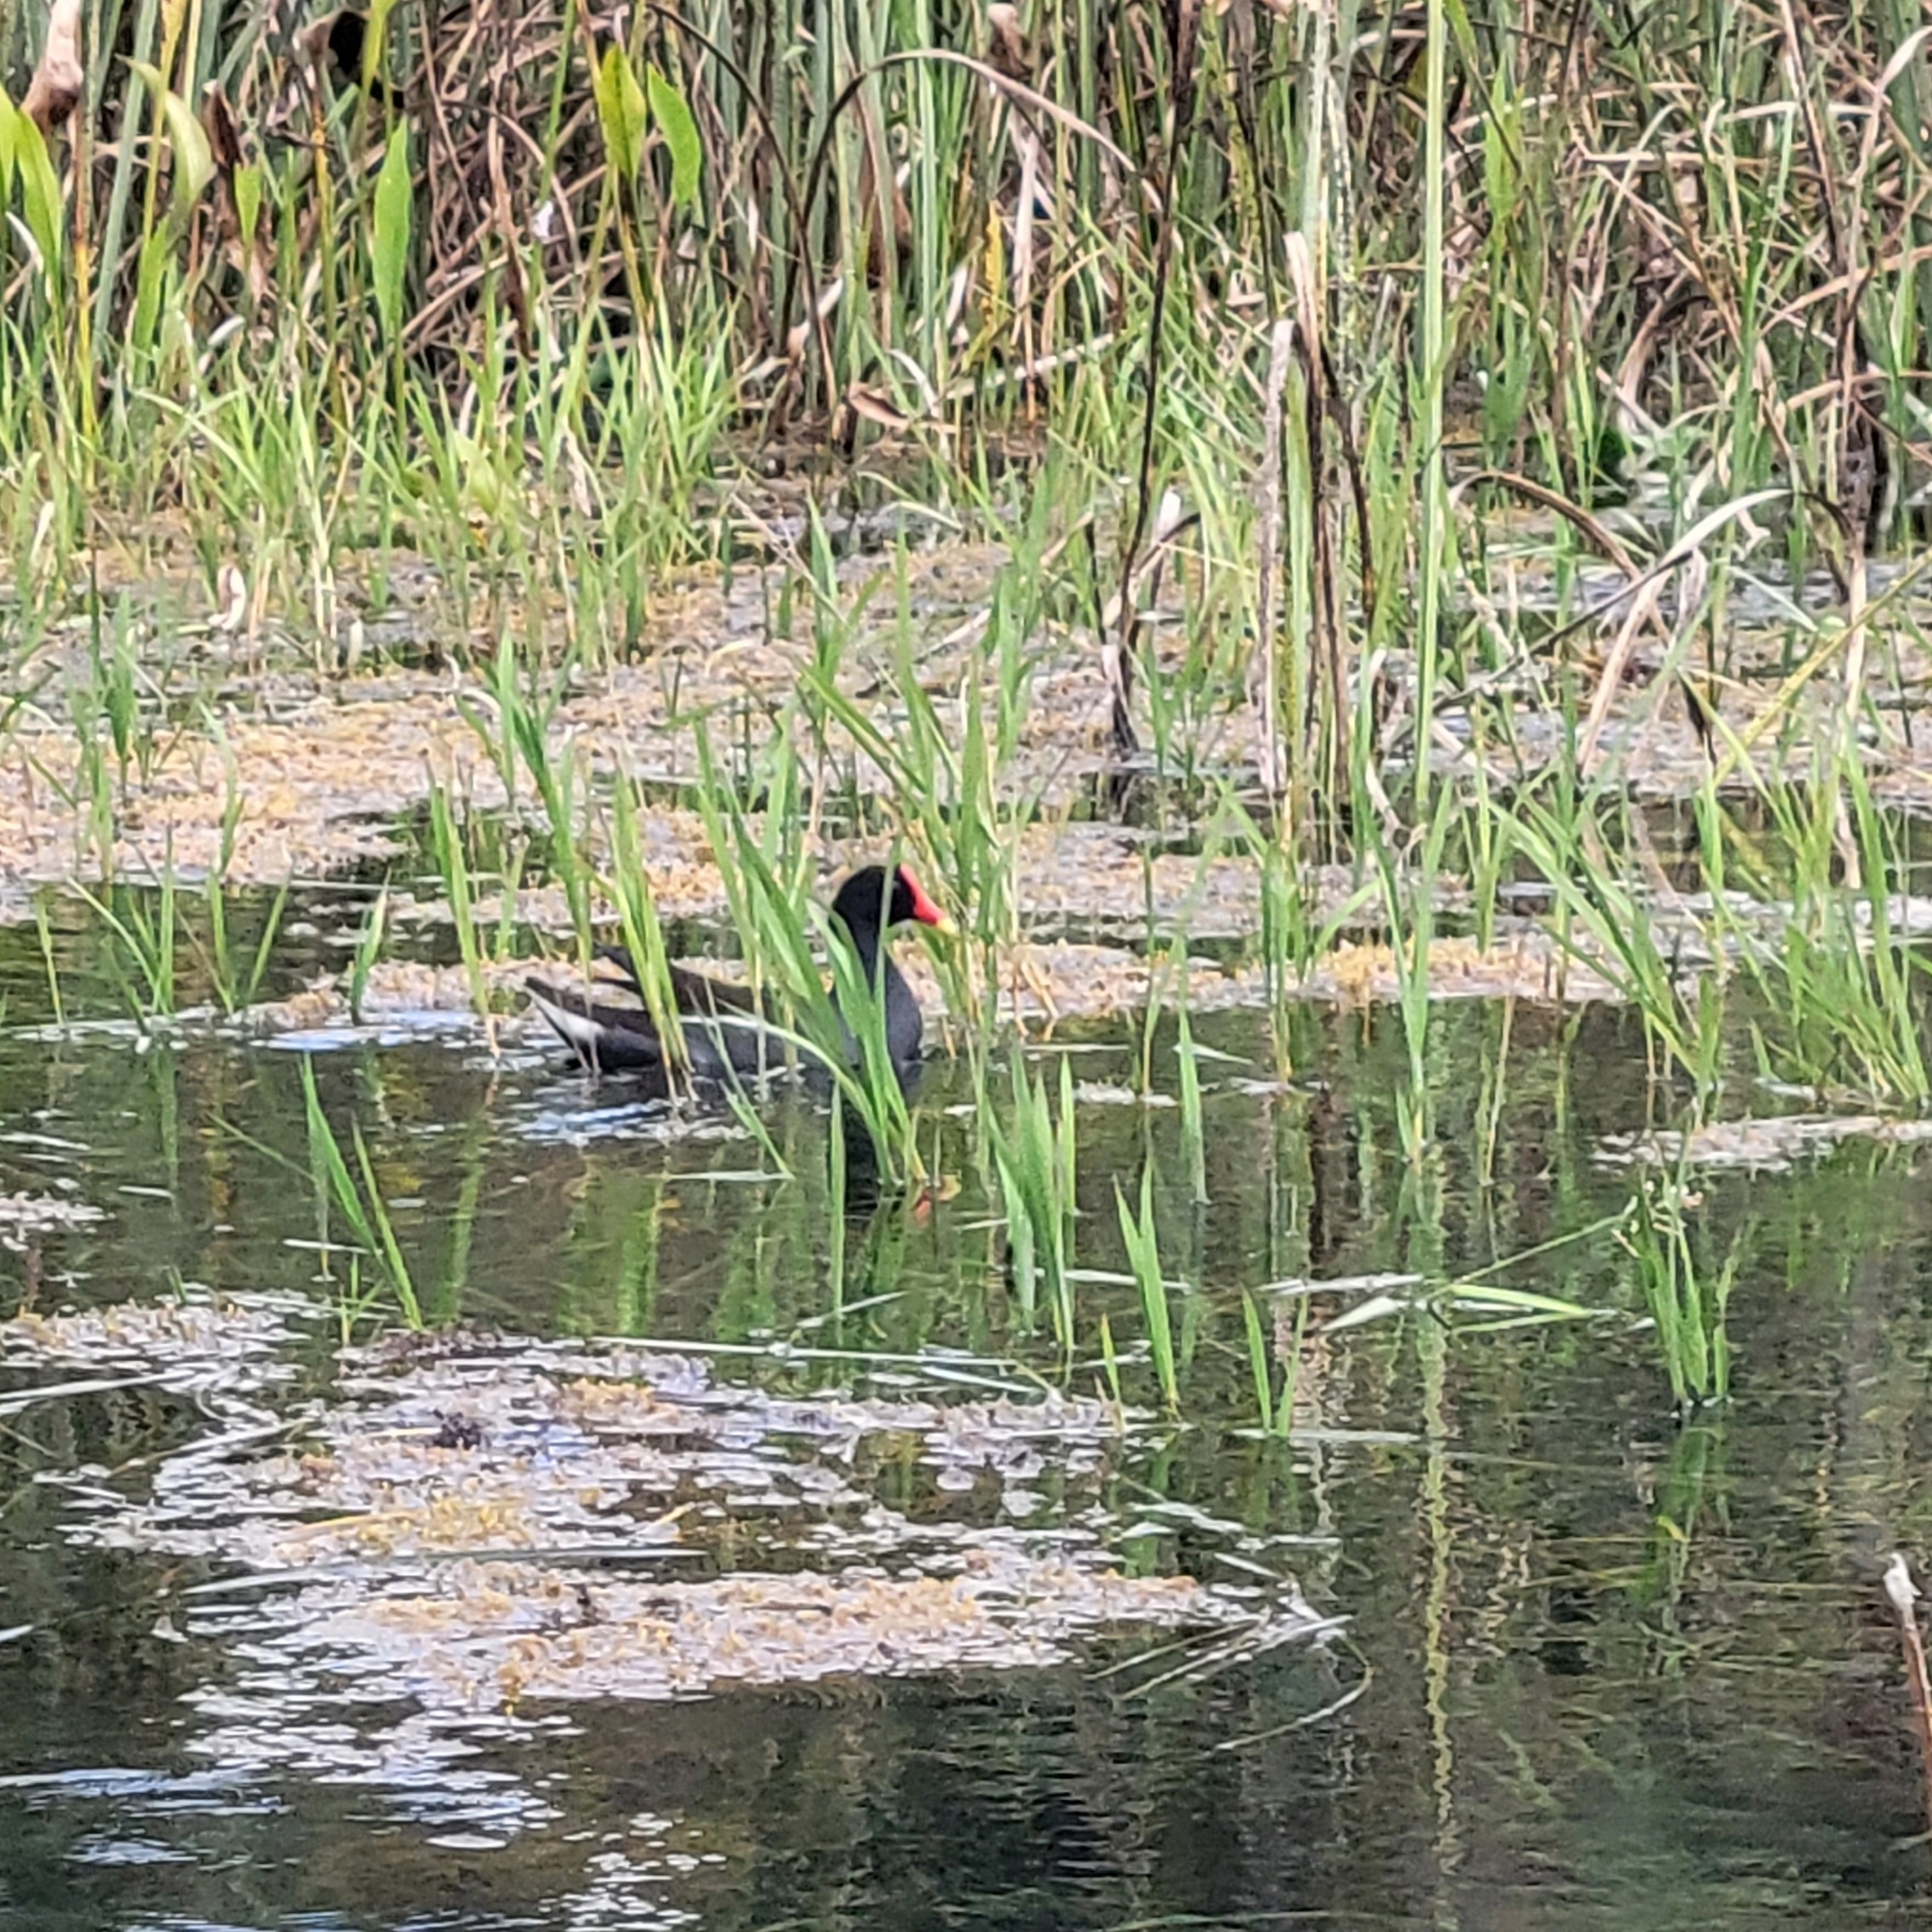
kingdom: Animalia
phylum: Chordata
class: Aves
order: Gruiformes
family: Rallidae
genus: Gallinula
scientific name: Gallinula chloropus
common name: Common moorhen
